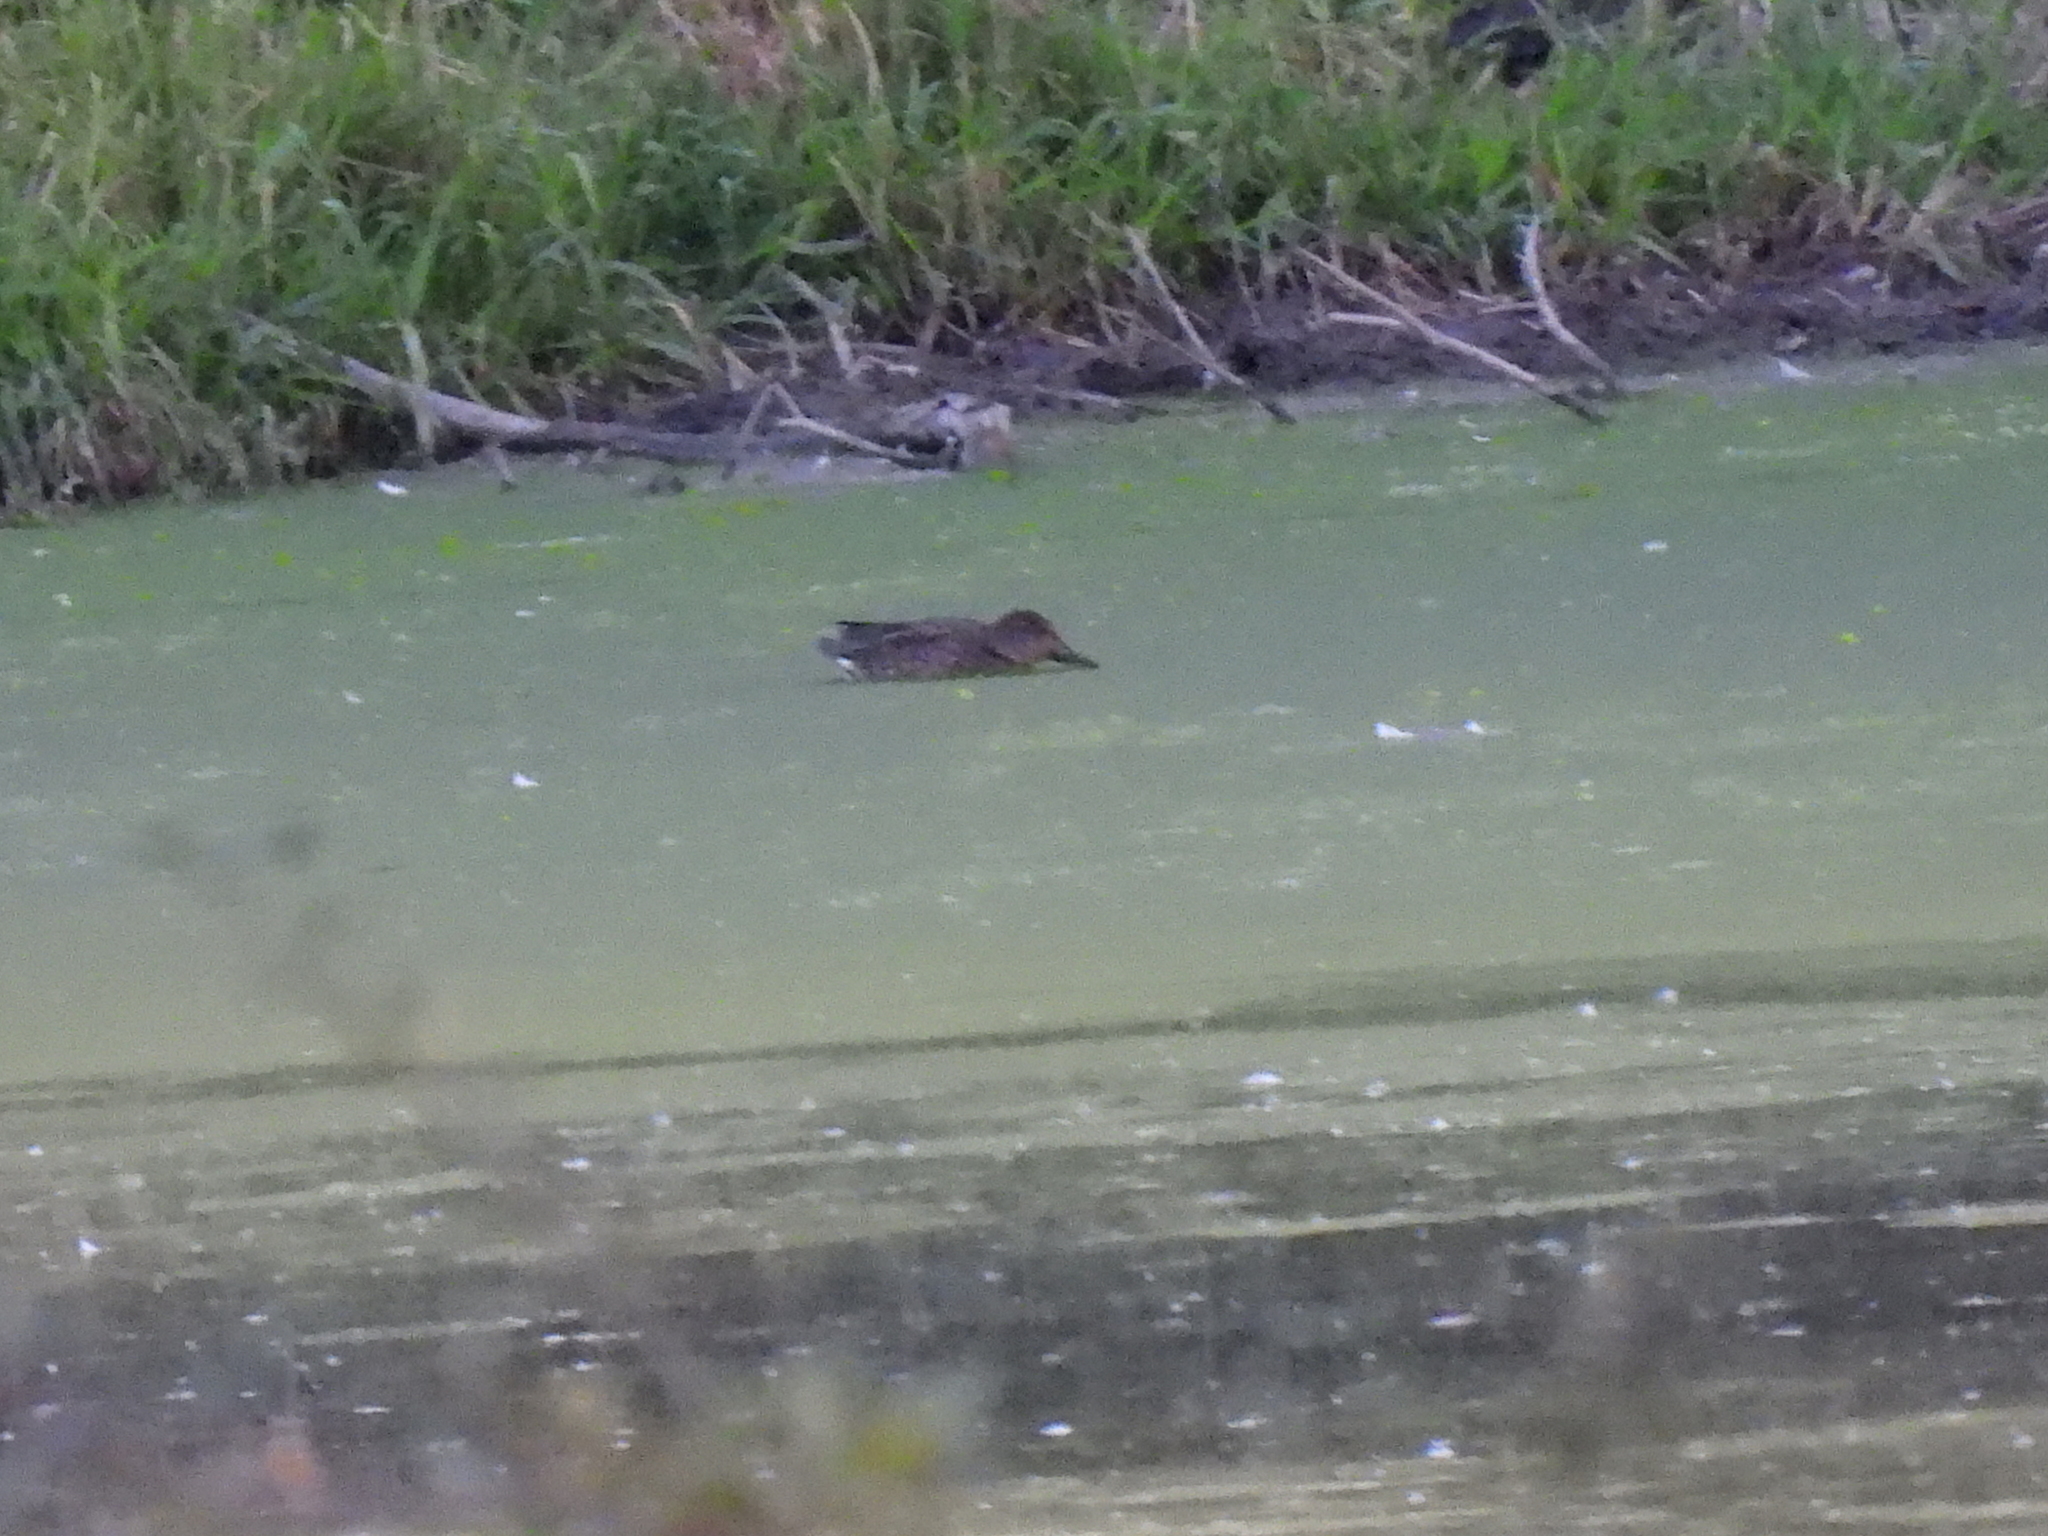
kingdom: Animalia
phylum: Chordata
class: Aves
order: Anseriformes
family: Anatidae
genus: Anas
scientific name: Anas crecca
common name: Eurasian teal
